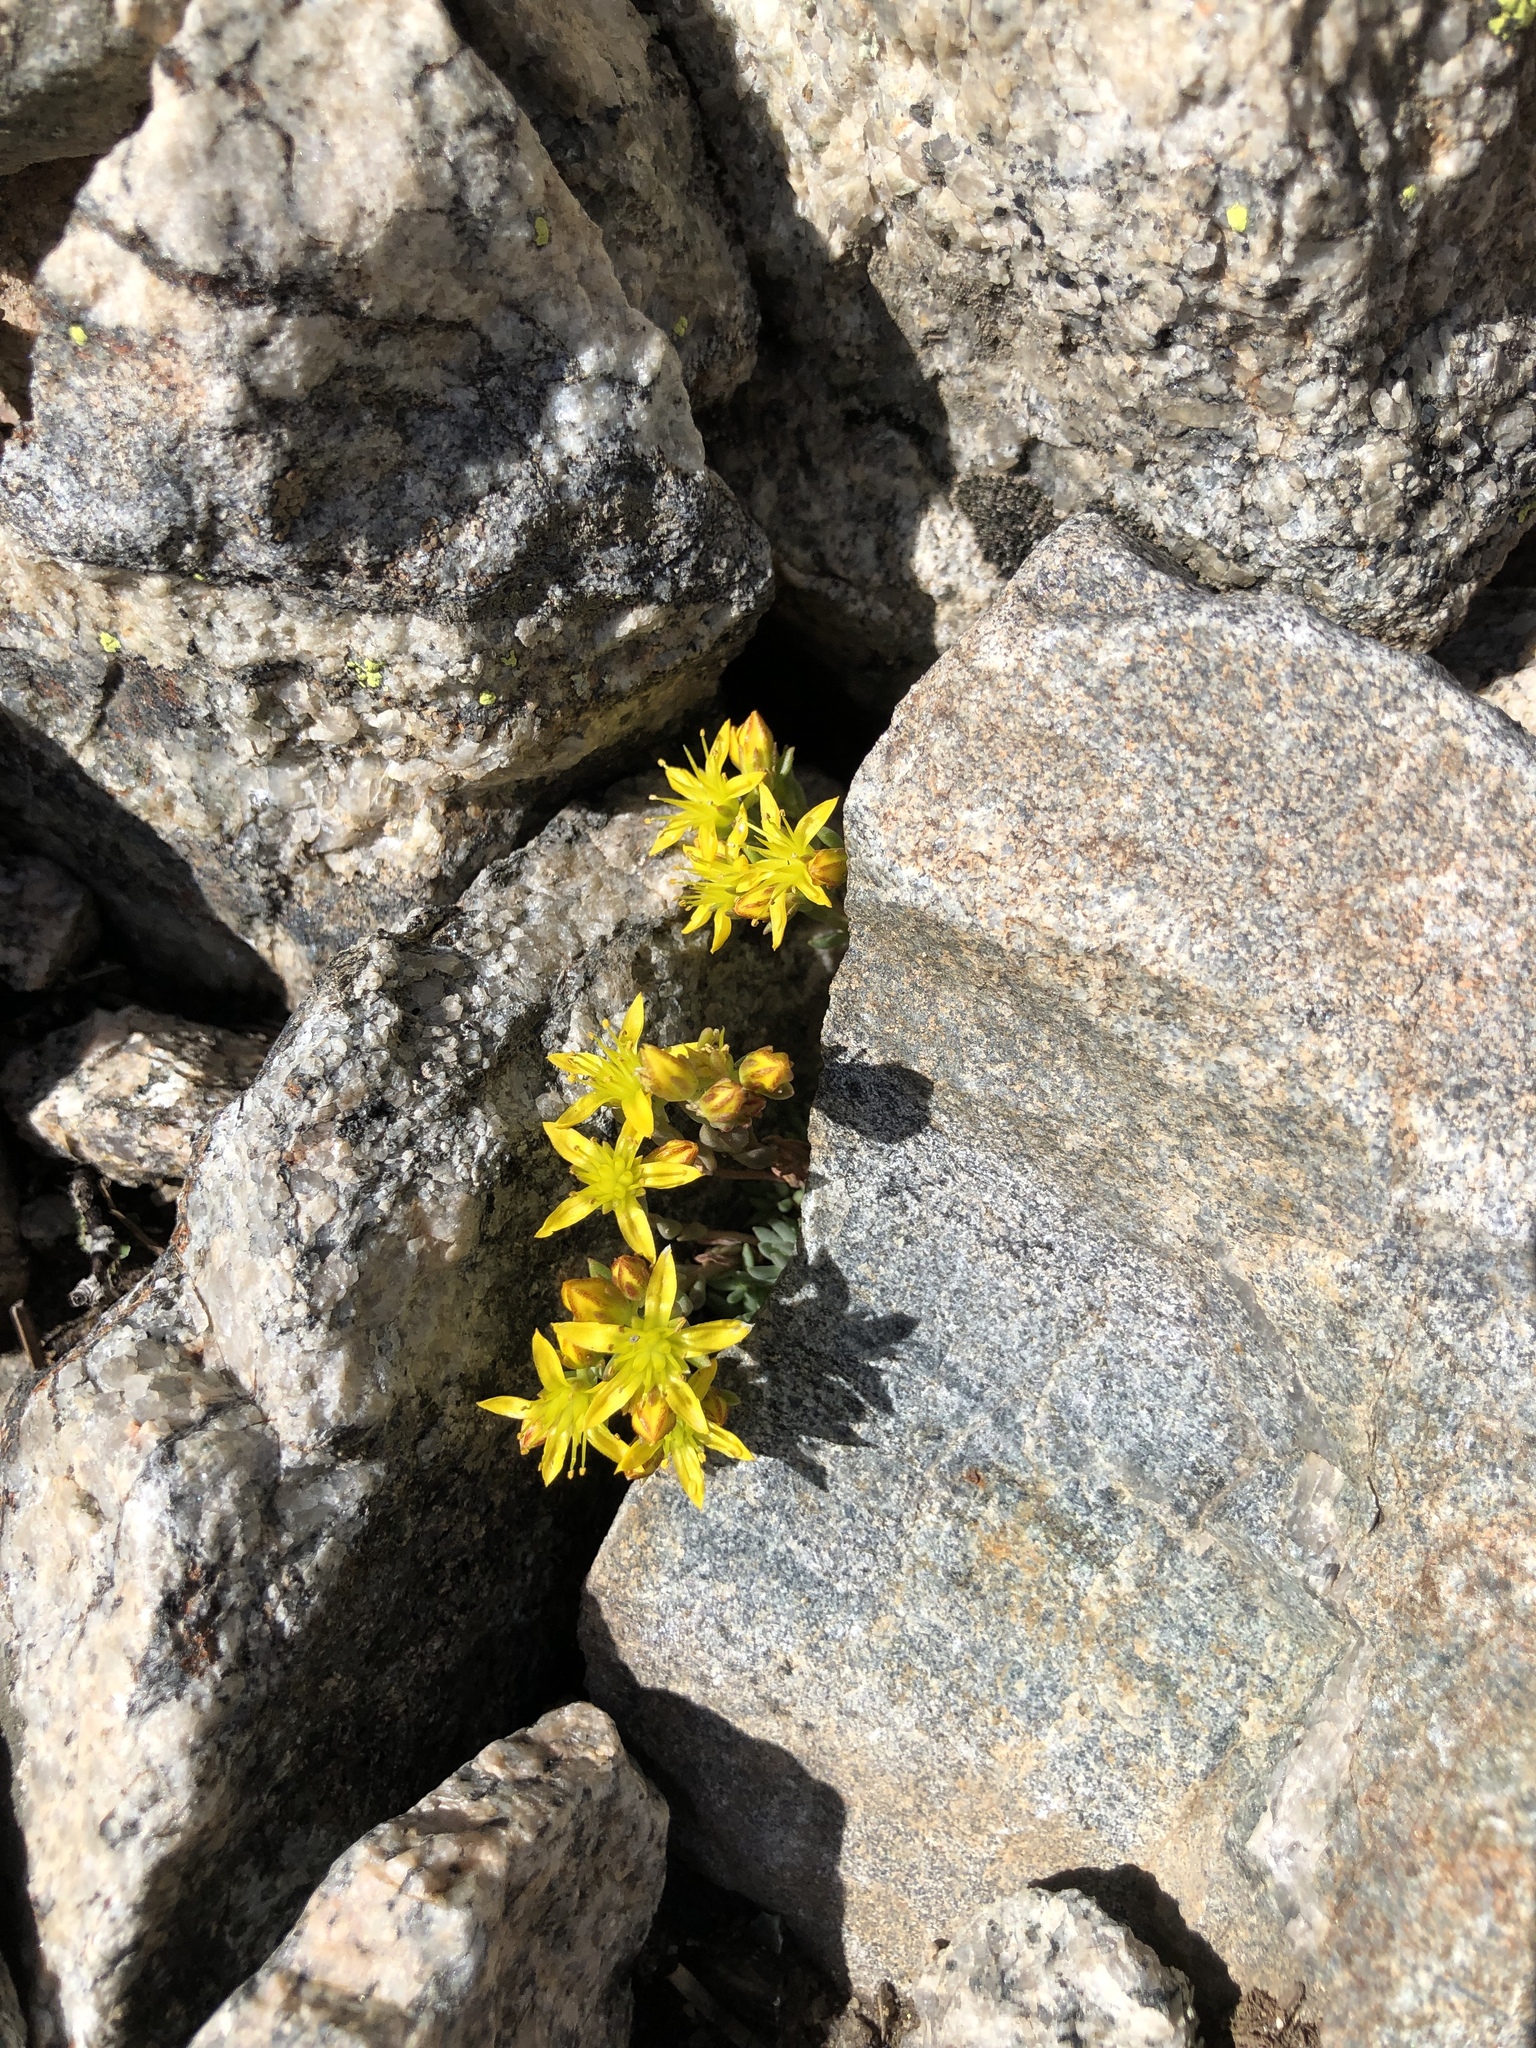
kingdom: Plantae
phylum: Tracheophyta
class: Magnoliopsida
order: Saxifragales
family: Crassulaceae
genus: Sedum
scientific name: Sedum lanceolatum
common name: Common stonecrop
